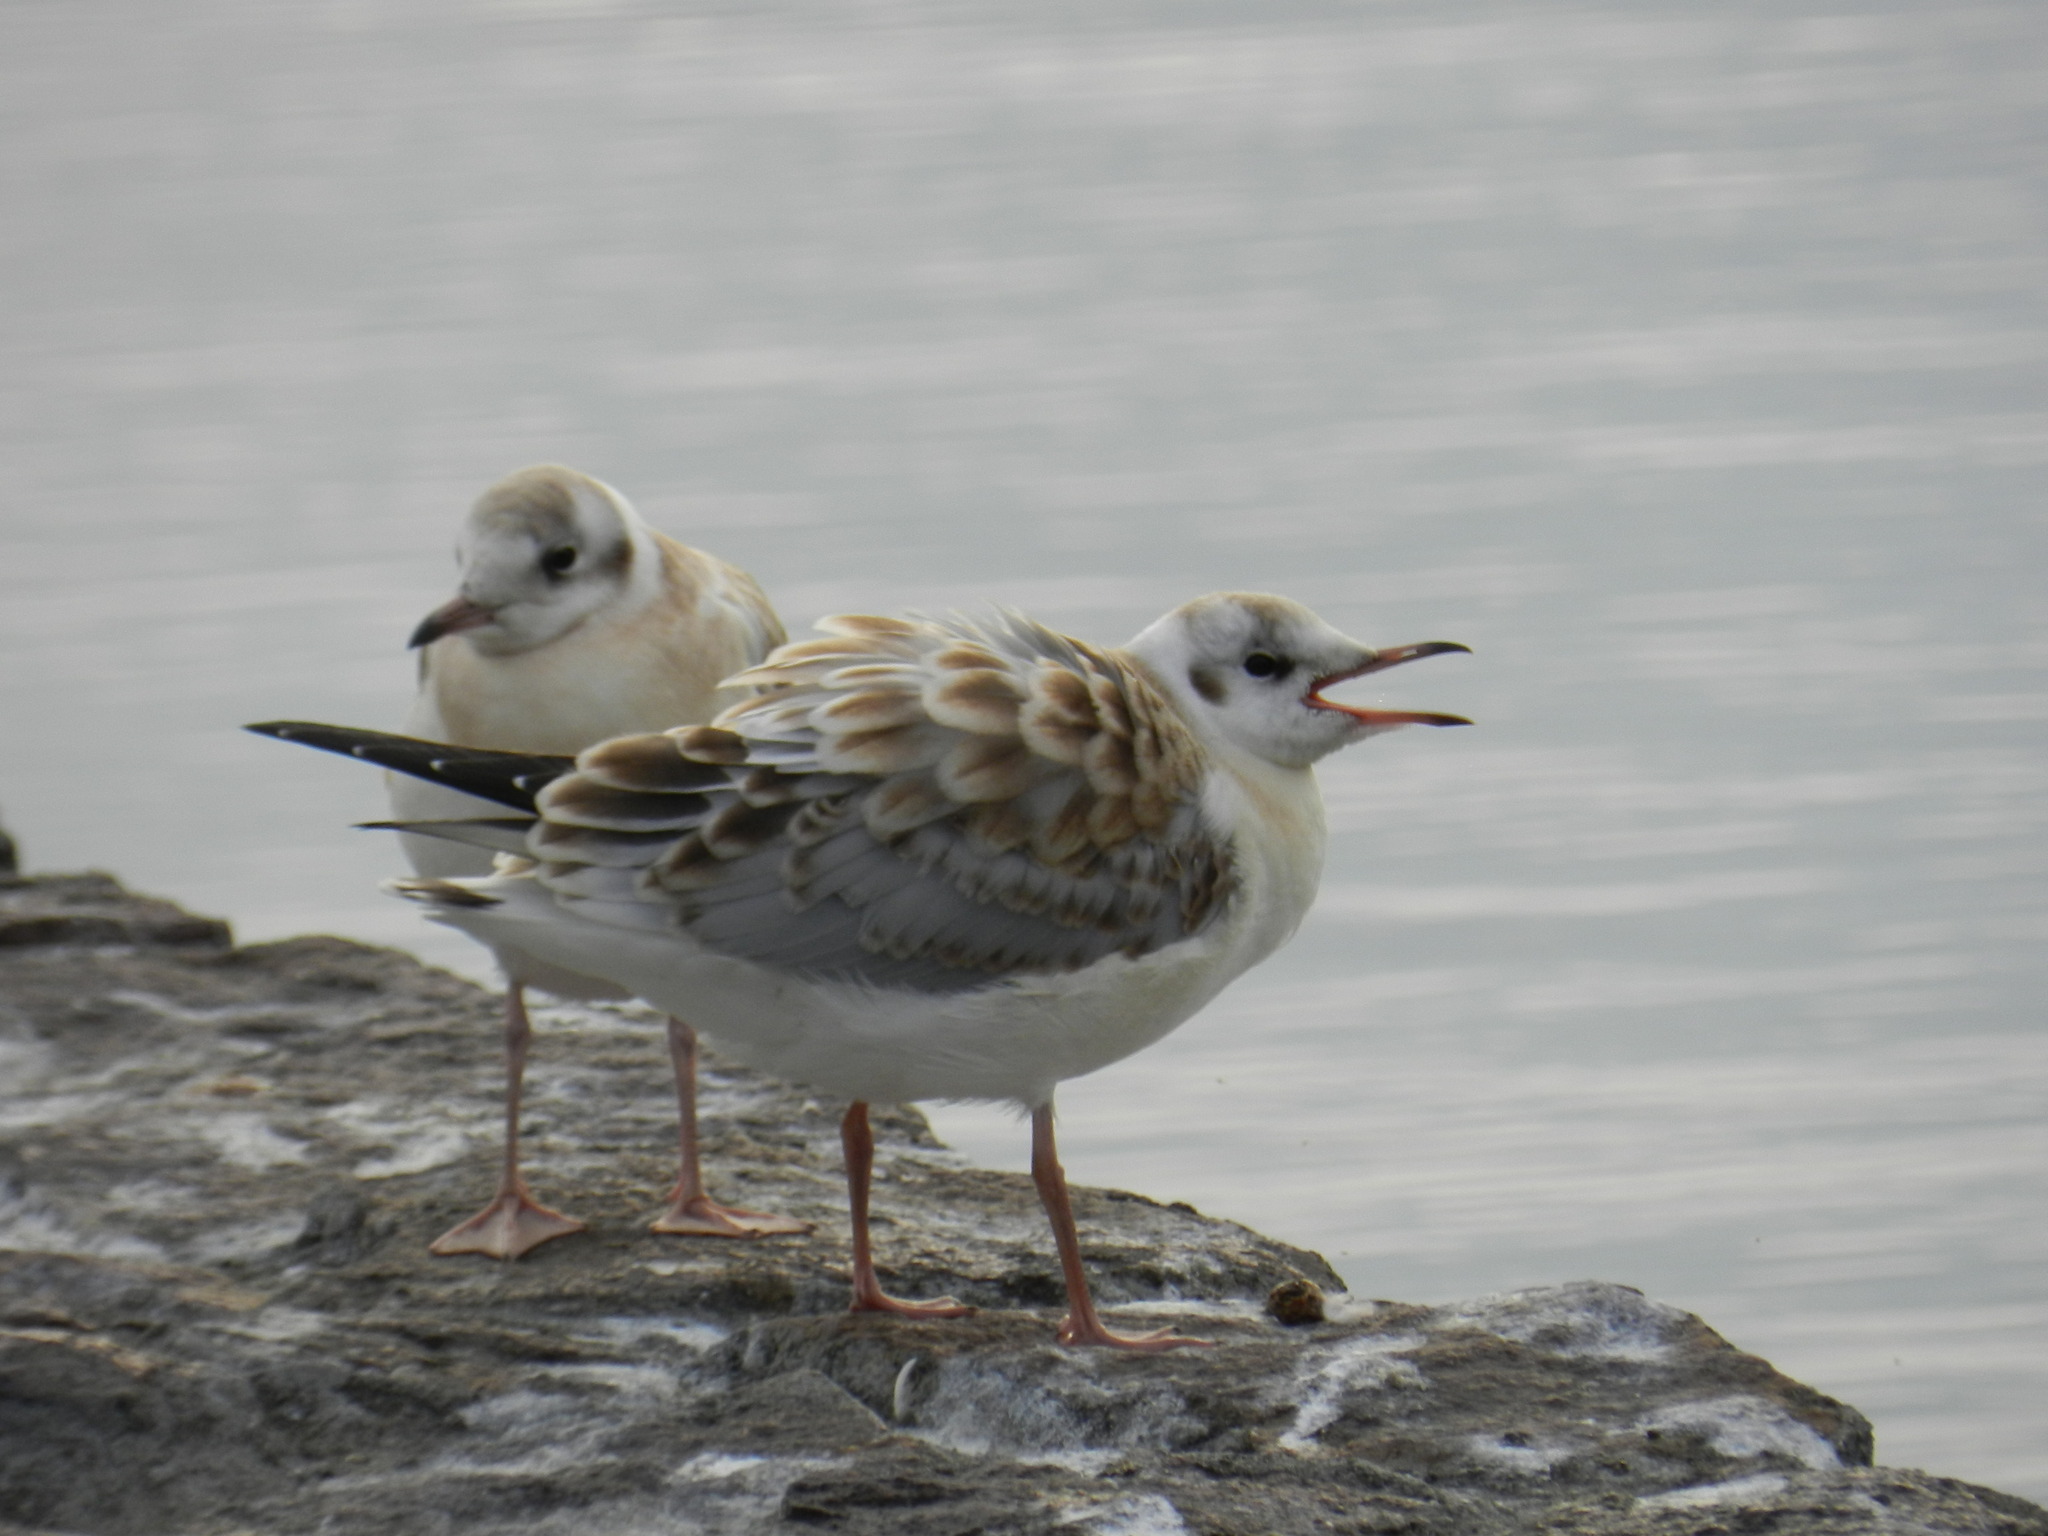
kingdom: Animalia
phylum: Chordata
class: Aves
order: Charadriiformes
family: Laridae
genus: Chroicocephalus
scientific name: Chroicocephalus ridibundus
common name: Black-headed gull
